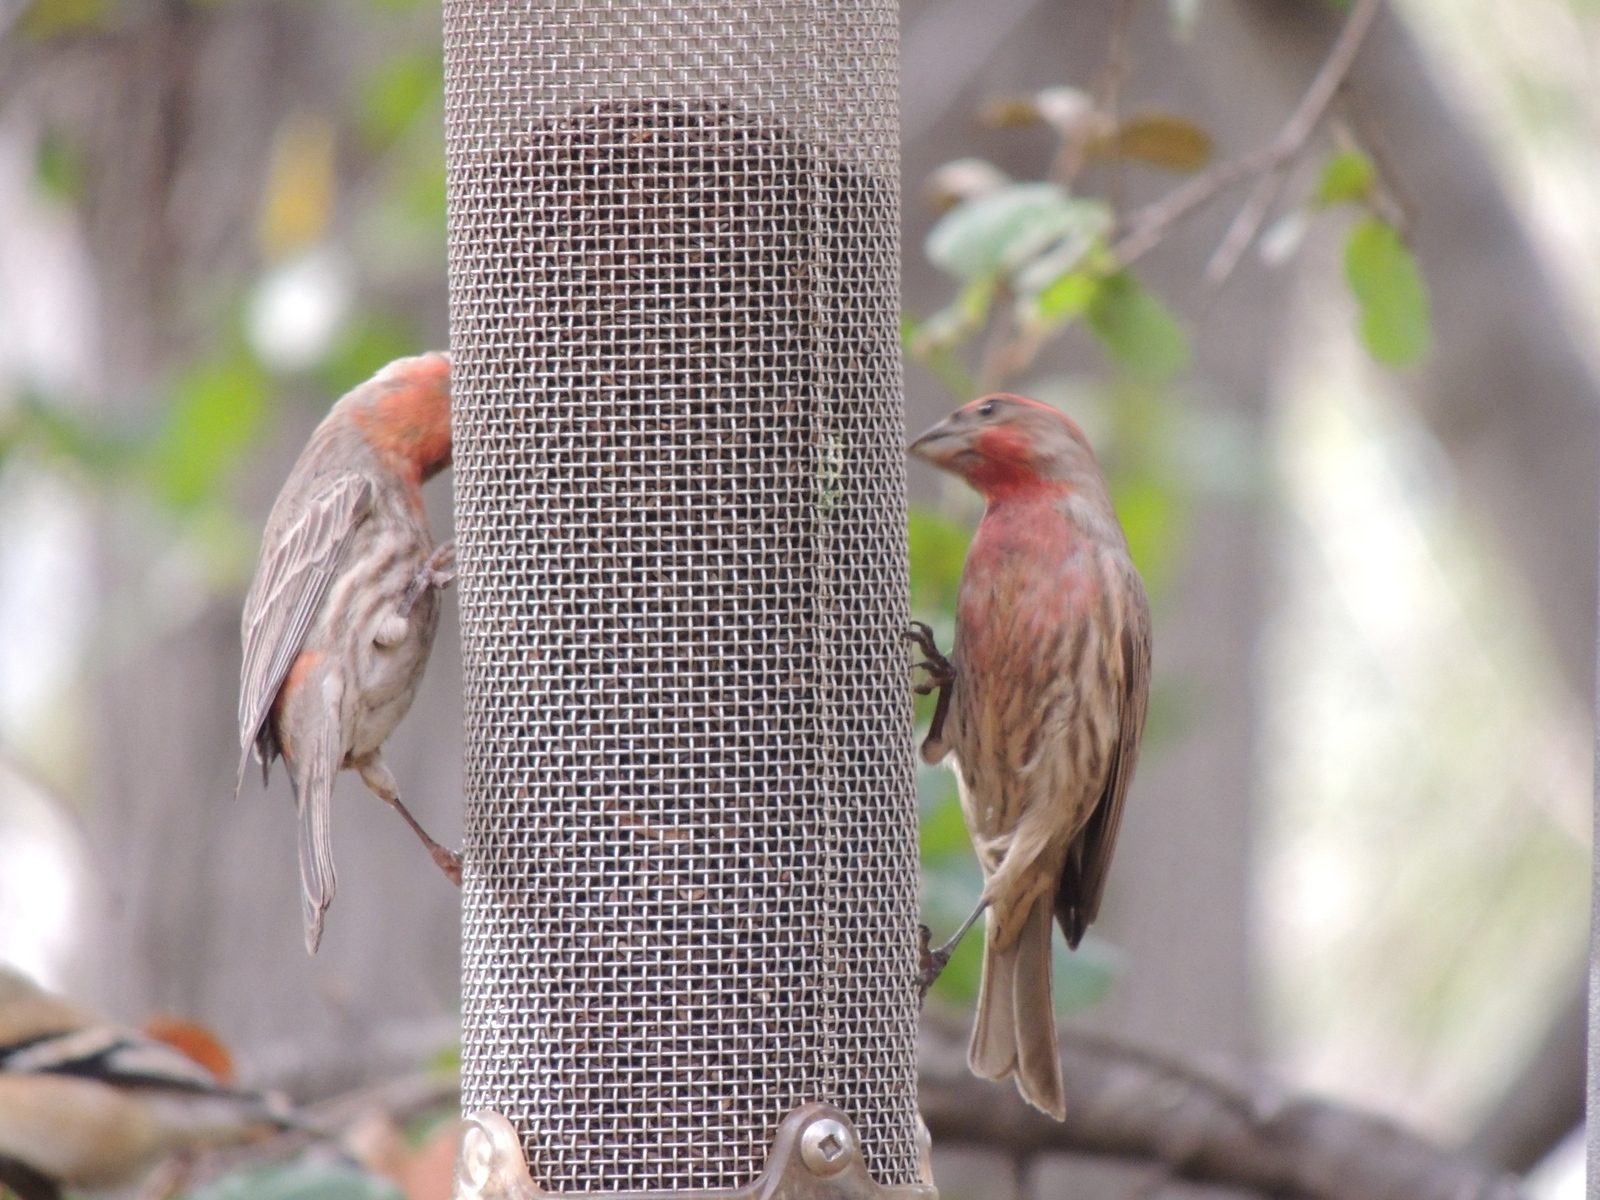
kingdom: Animalia
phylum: Chordata
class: Aves
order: Passeriformes
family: Fringillidae
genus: Haemorhous
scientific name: Haemorhous mexicanus
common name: House finch
